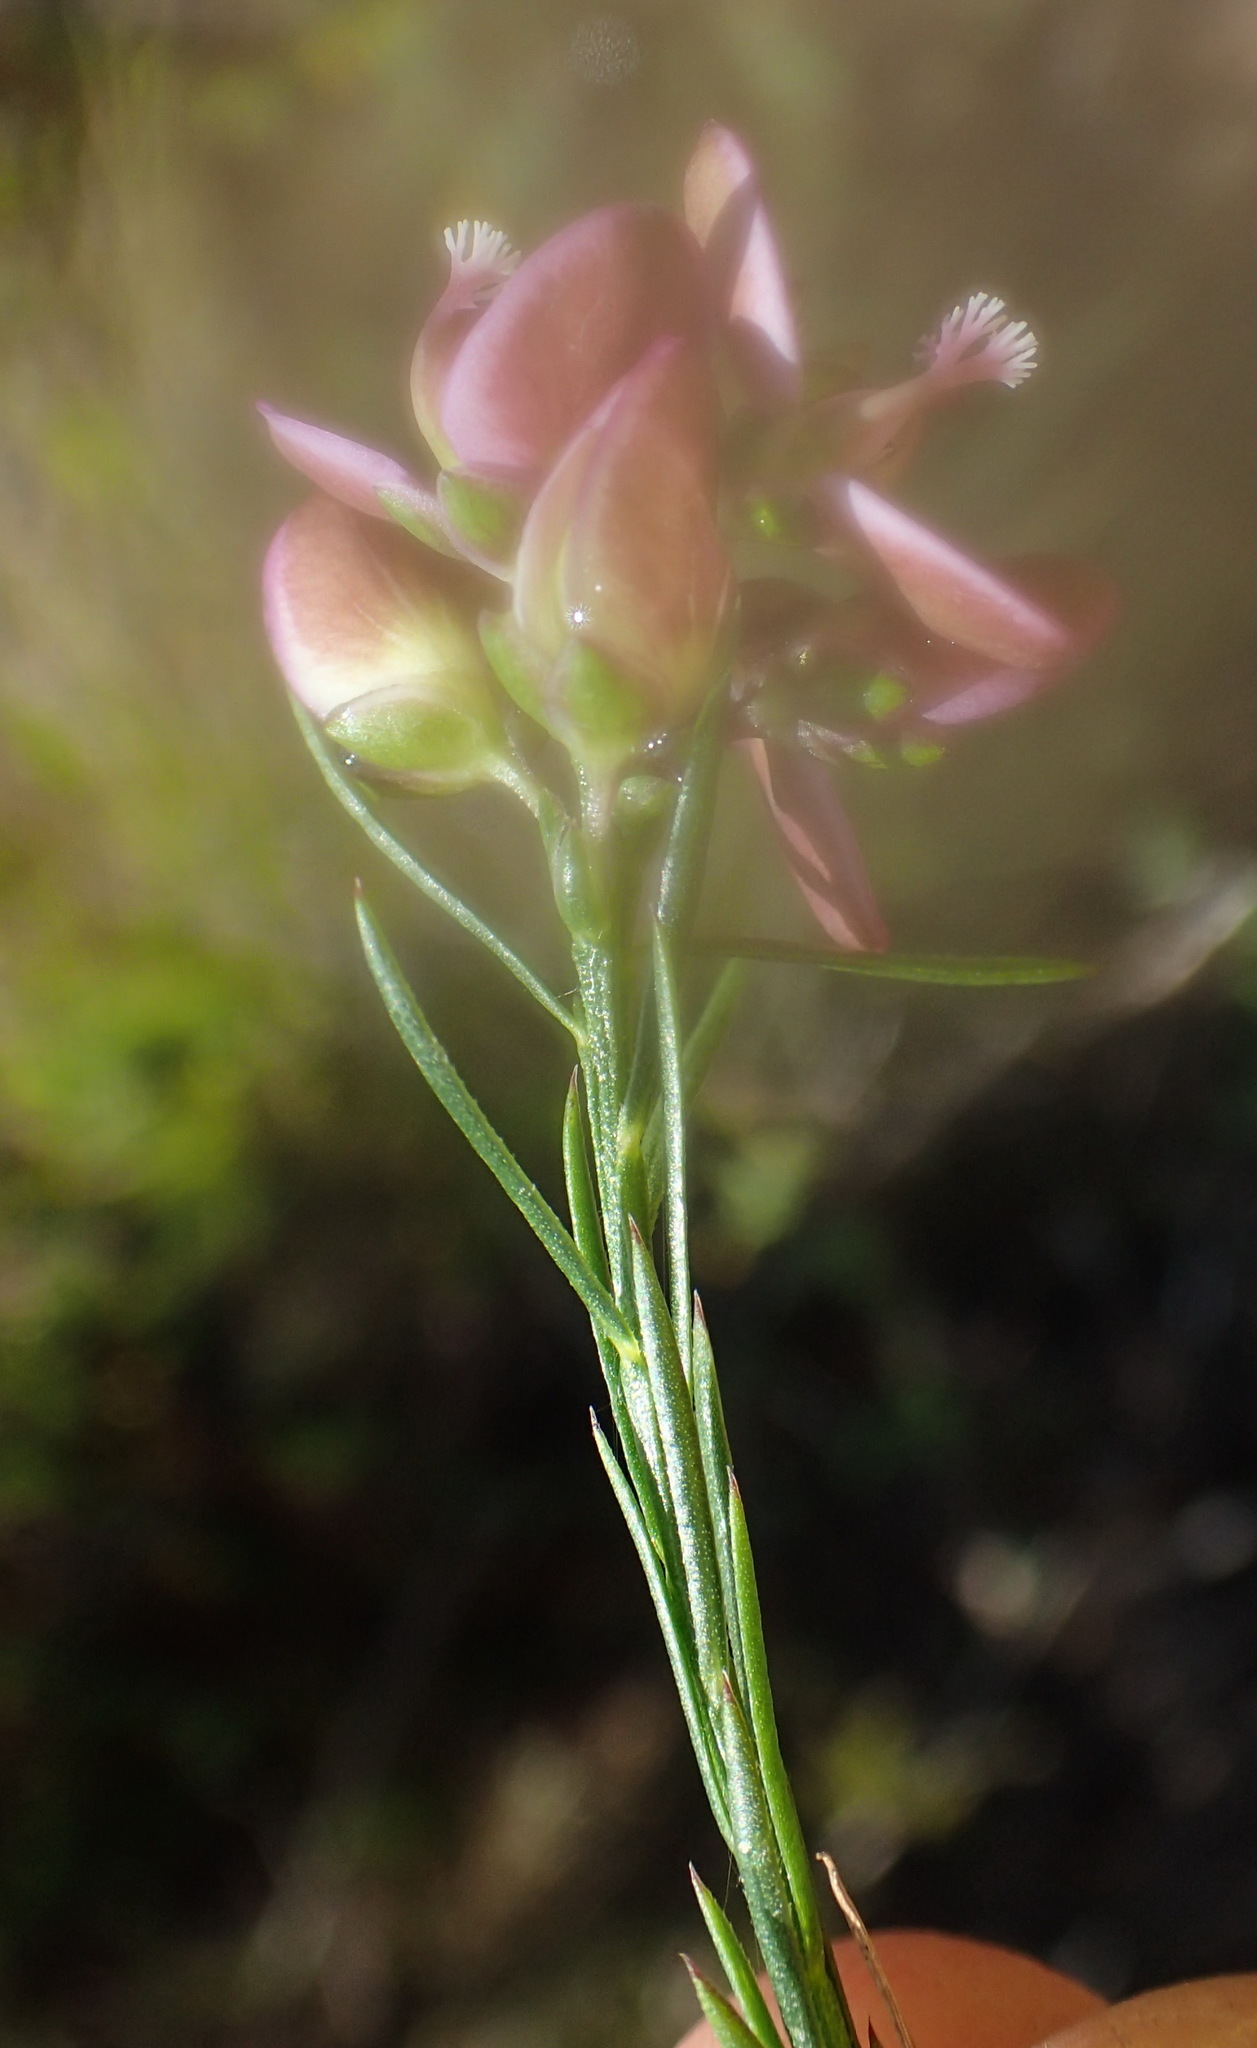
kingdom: Plantae
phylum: Tracheophyta
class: Magnoliopsida
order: Fabales
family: Polygalaceae
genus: Polygala
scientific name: Polygala ericifolia
